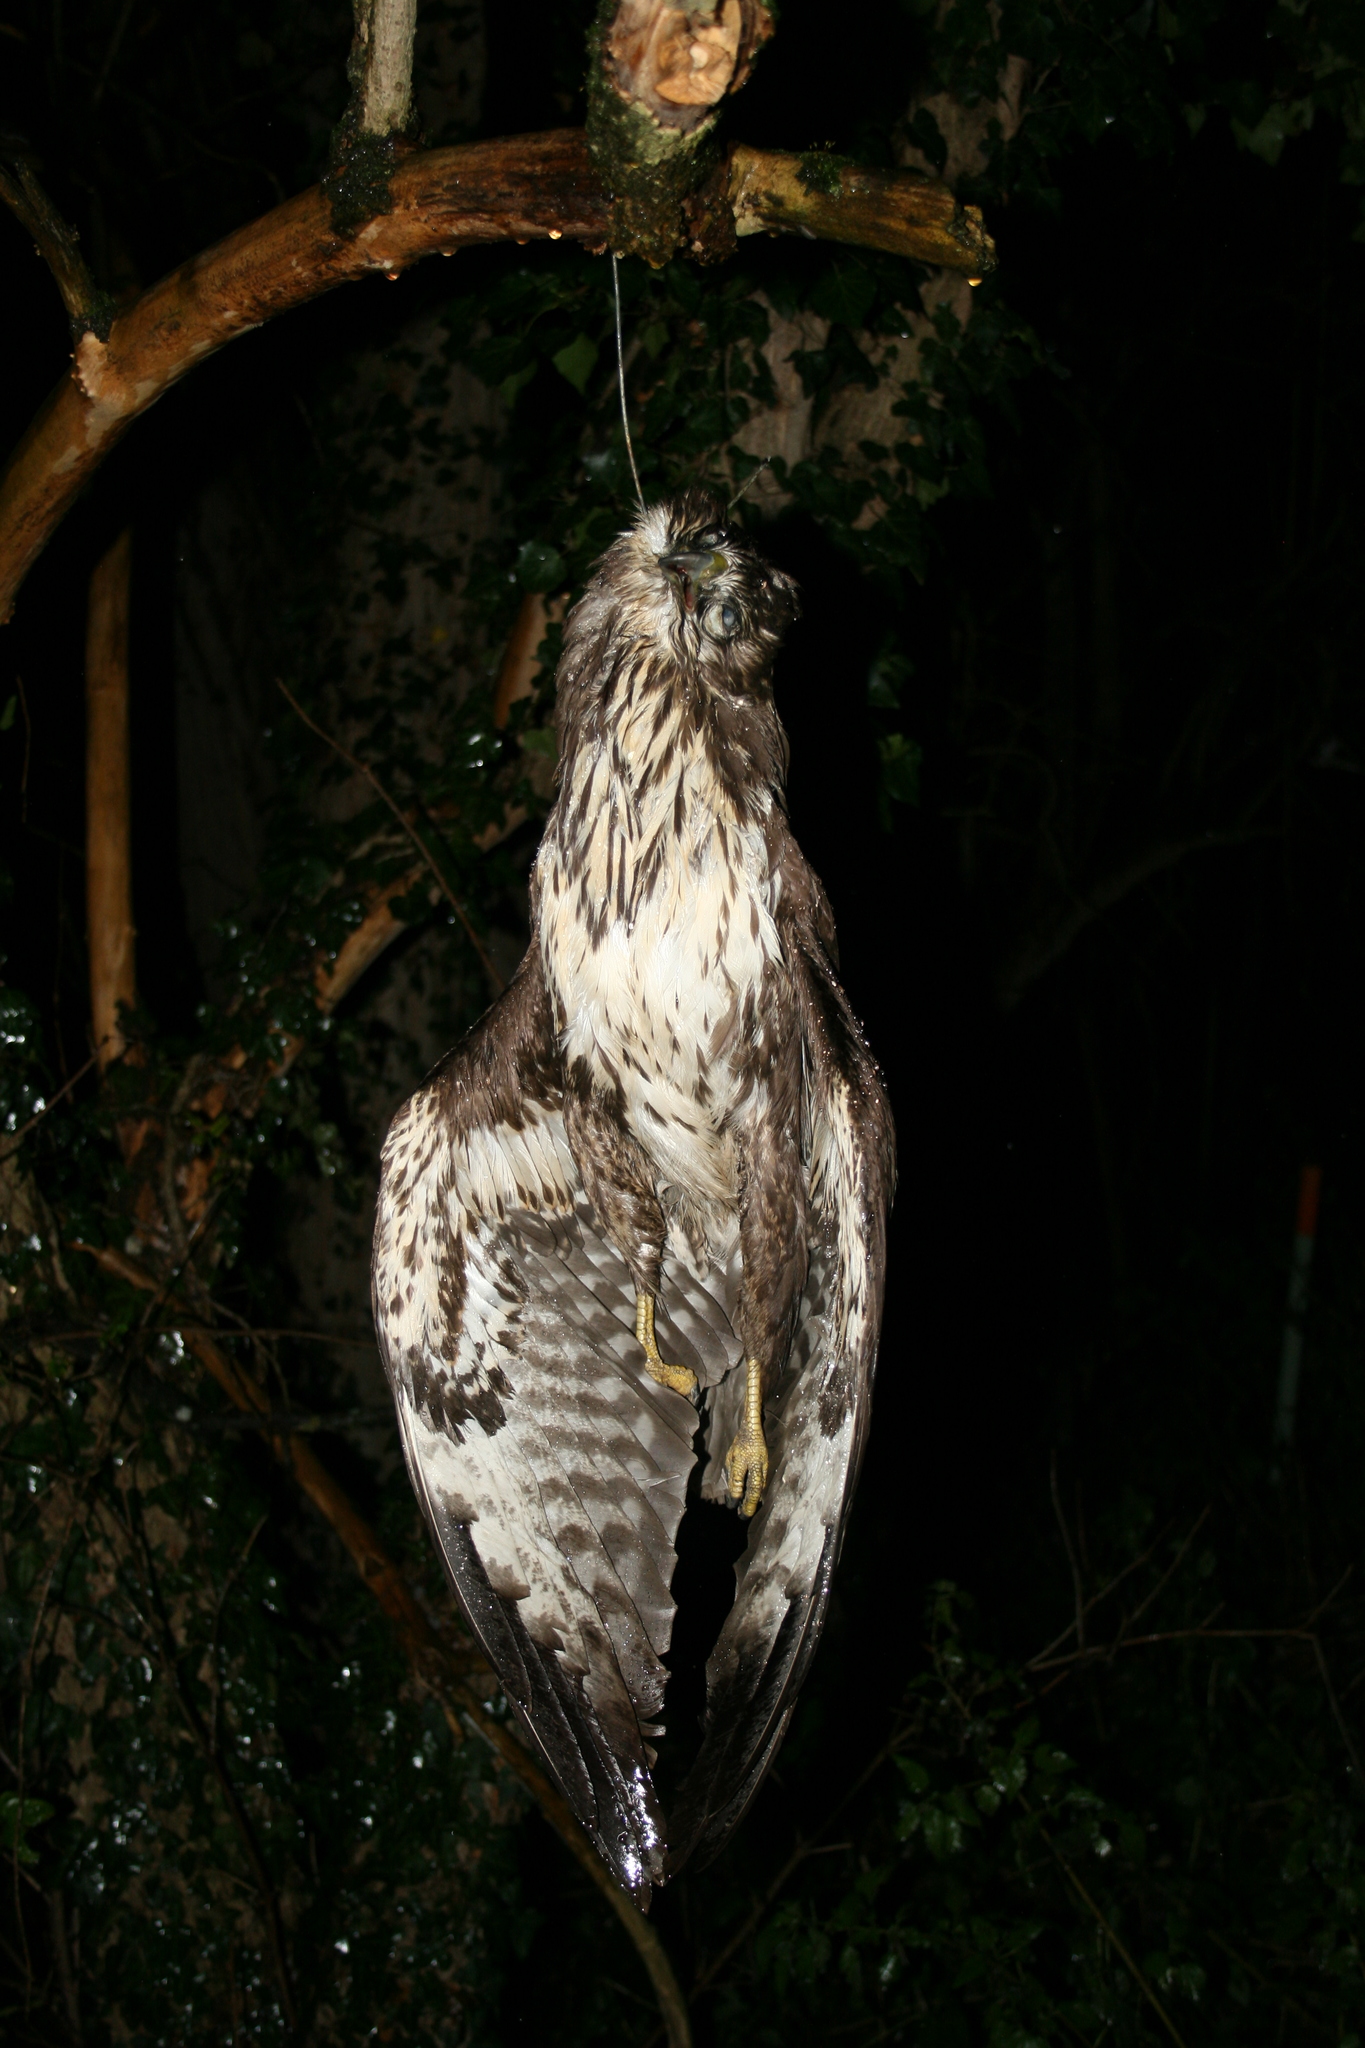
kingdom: Animalia
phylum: Chordata
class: Aves
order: Accipitriformes
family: Accipitridae
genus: Buteo
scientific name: Buteo buteo
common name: Common buzzard
